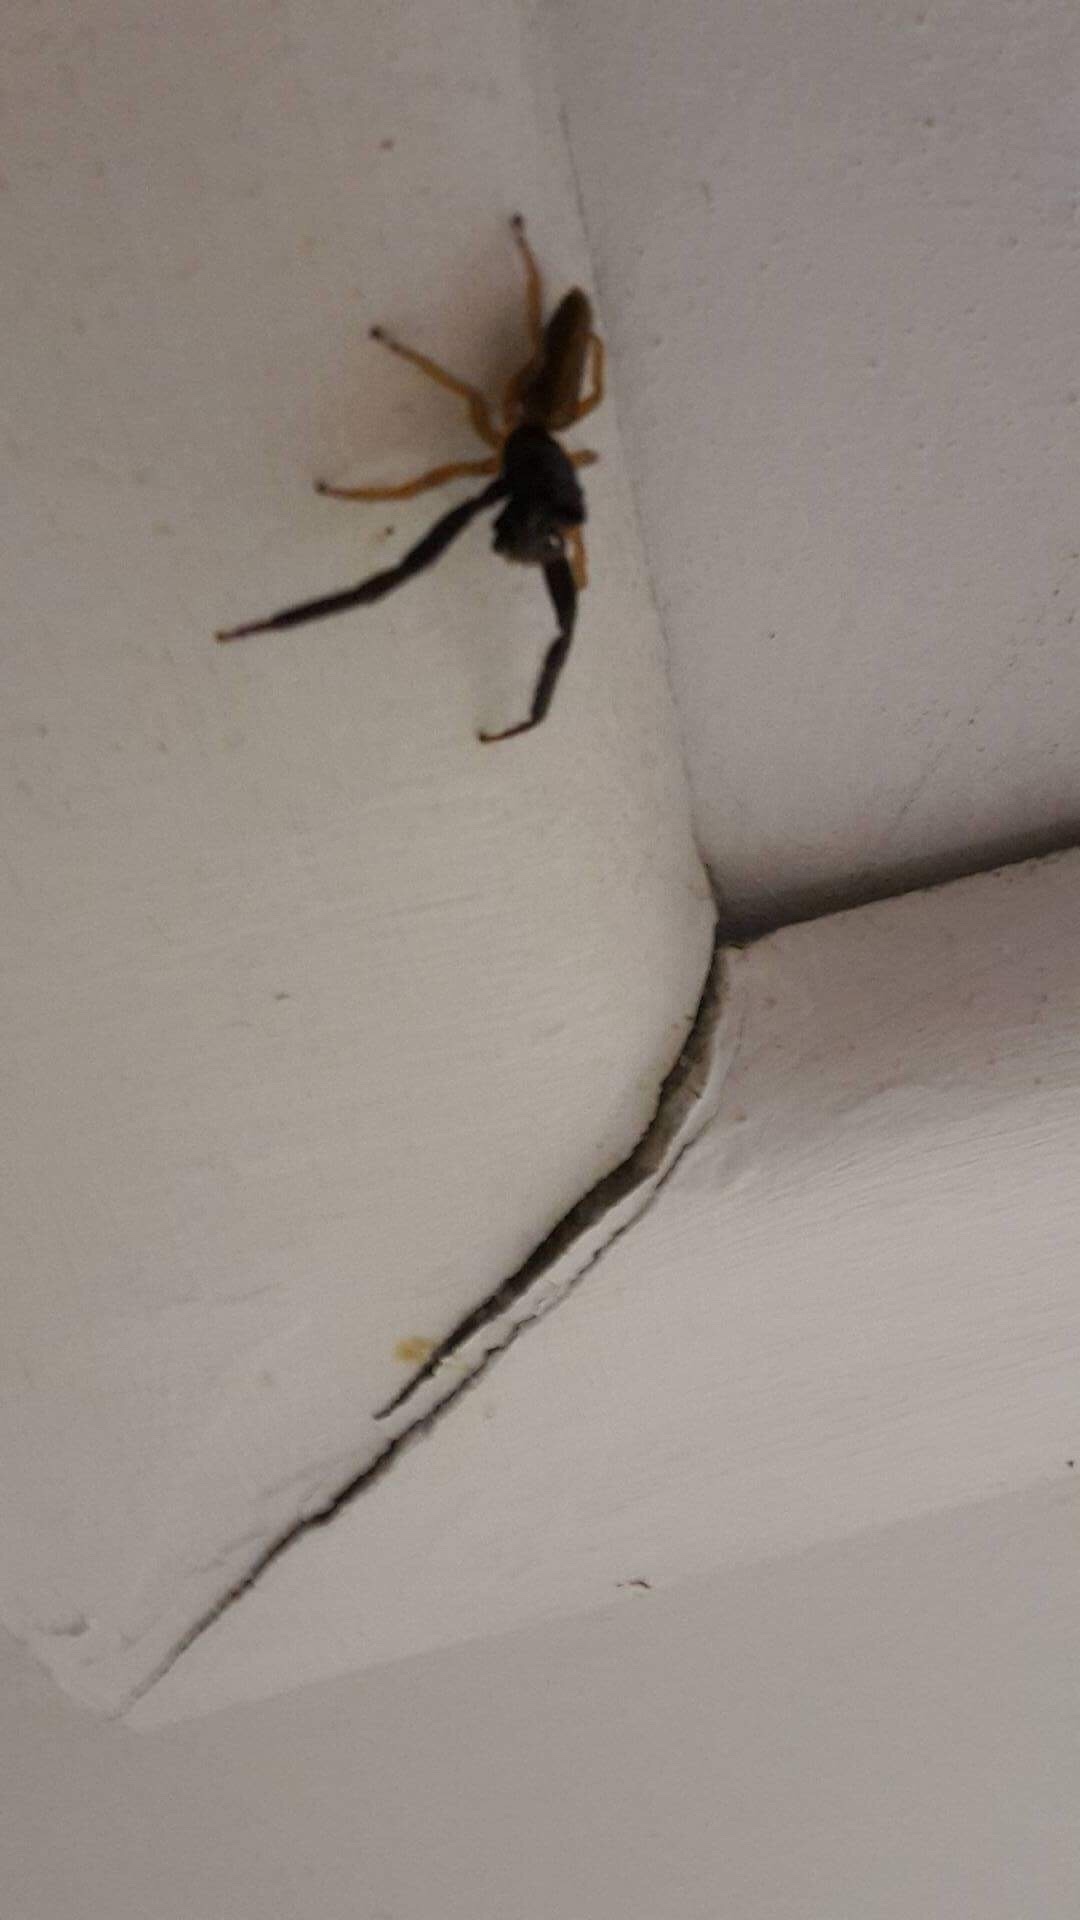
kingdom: Animalia
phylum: Arthropoda
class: Arachnida
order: Araneae
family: Salticidae
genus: Trite
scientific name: Trite planiceps
